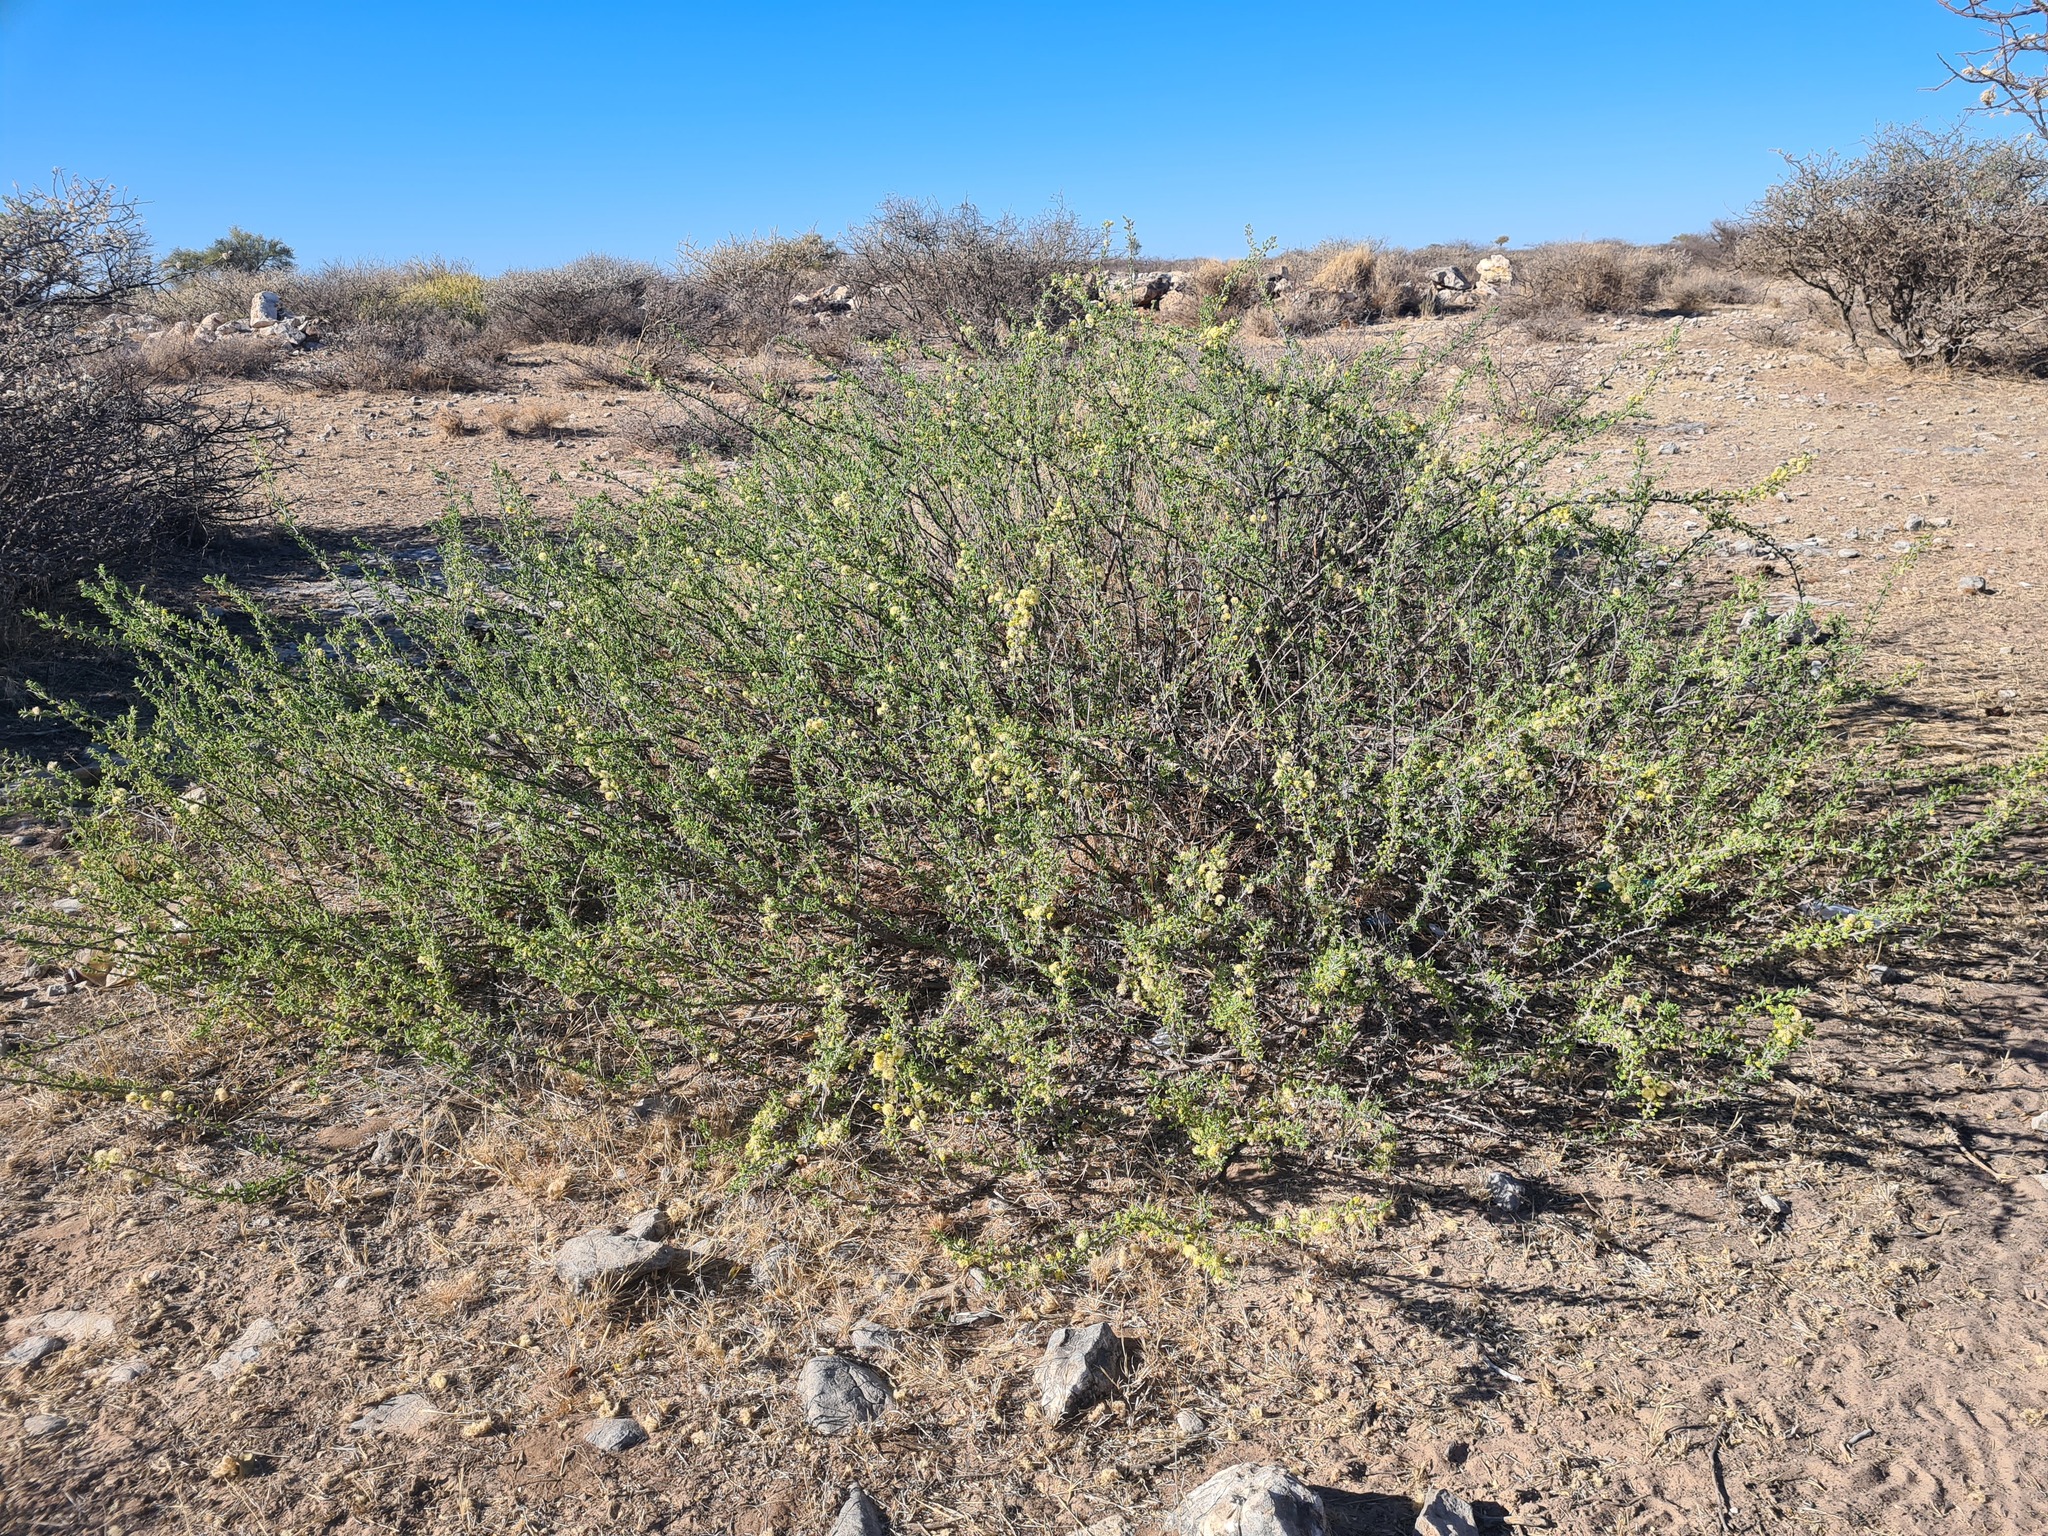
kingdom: Plantae
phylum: Tracheophyta
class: Magnoliopsida
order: Fabales
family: Fabaceae
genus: Vachellia
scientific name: Vachellia hebeclada
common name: Candle thorn
